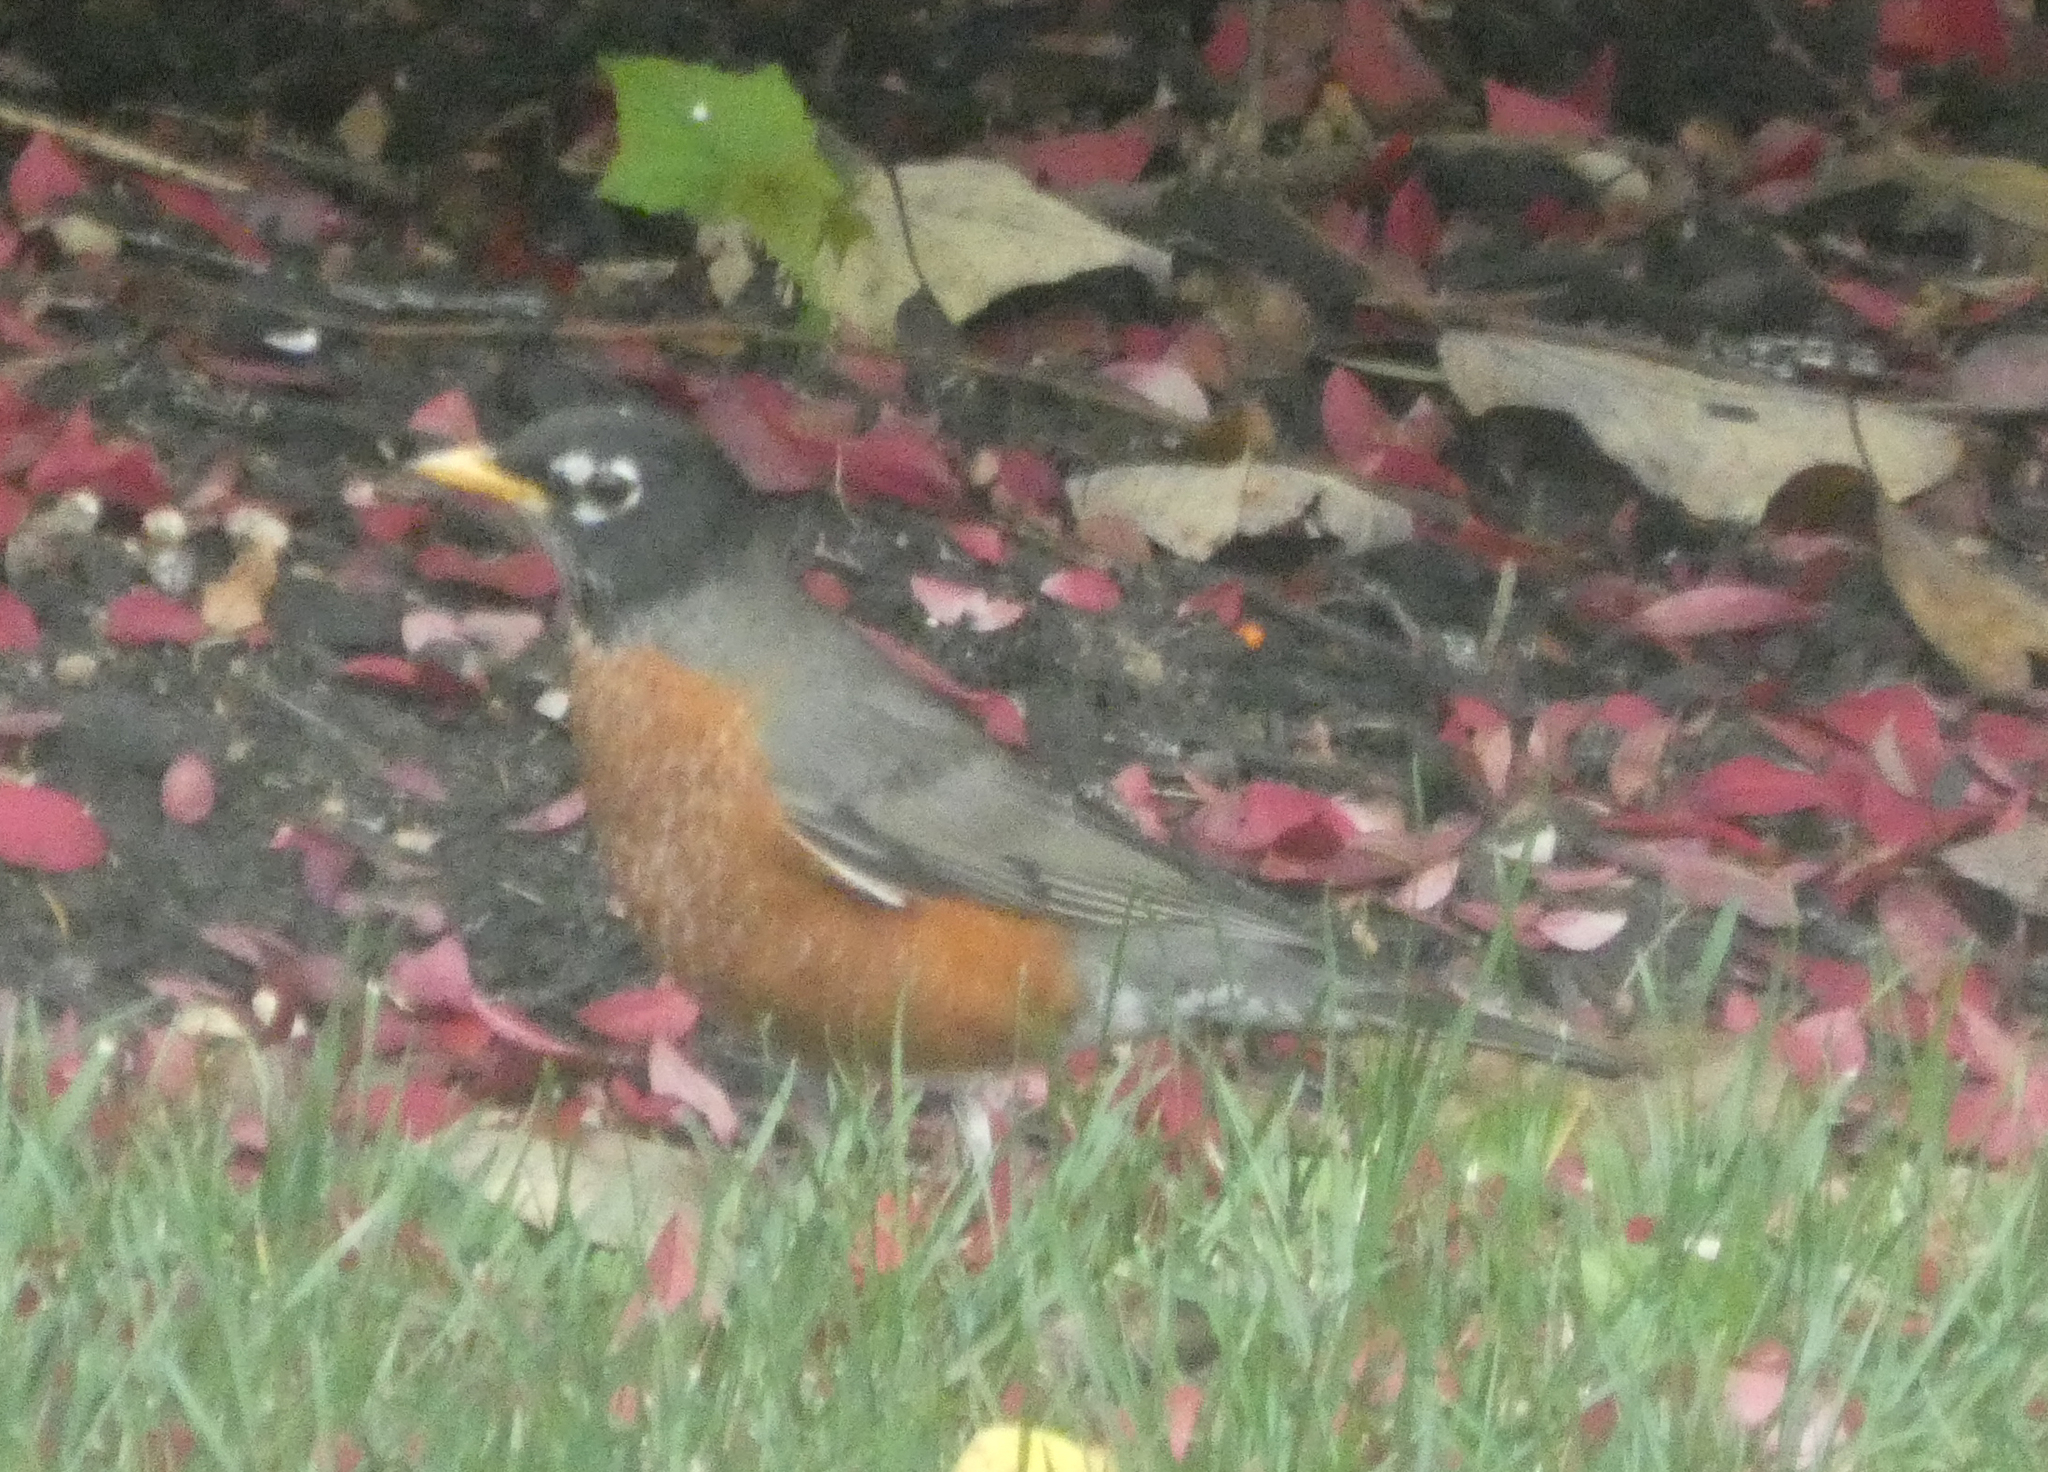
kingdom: Animalia
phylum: Chordata
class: Aves
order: Passeriformes
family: Turdidae
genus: Turdus
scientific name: Turdus migratorius
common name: American robin
